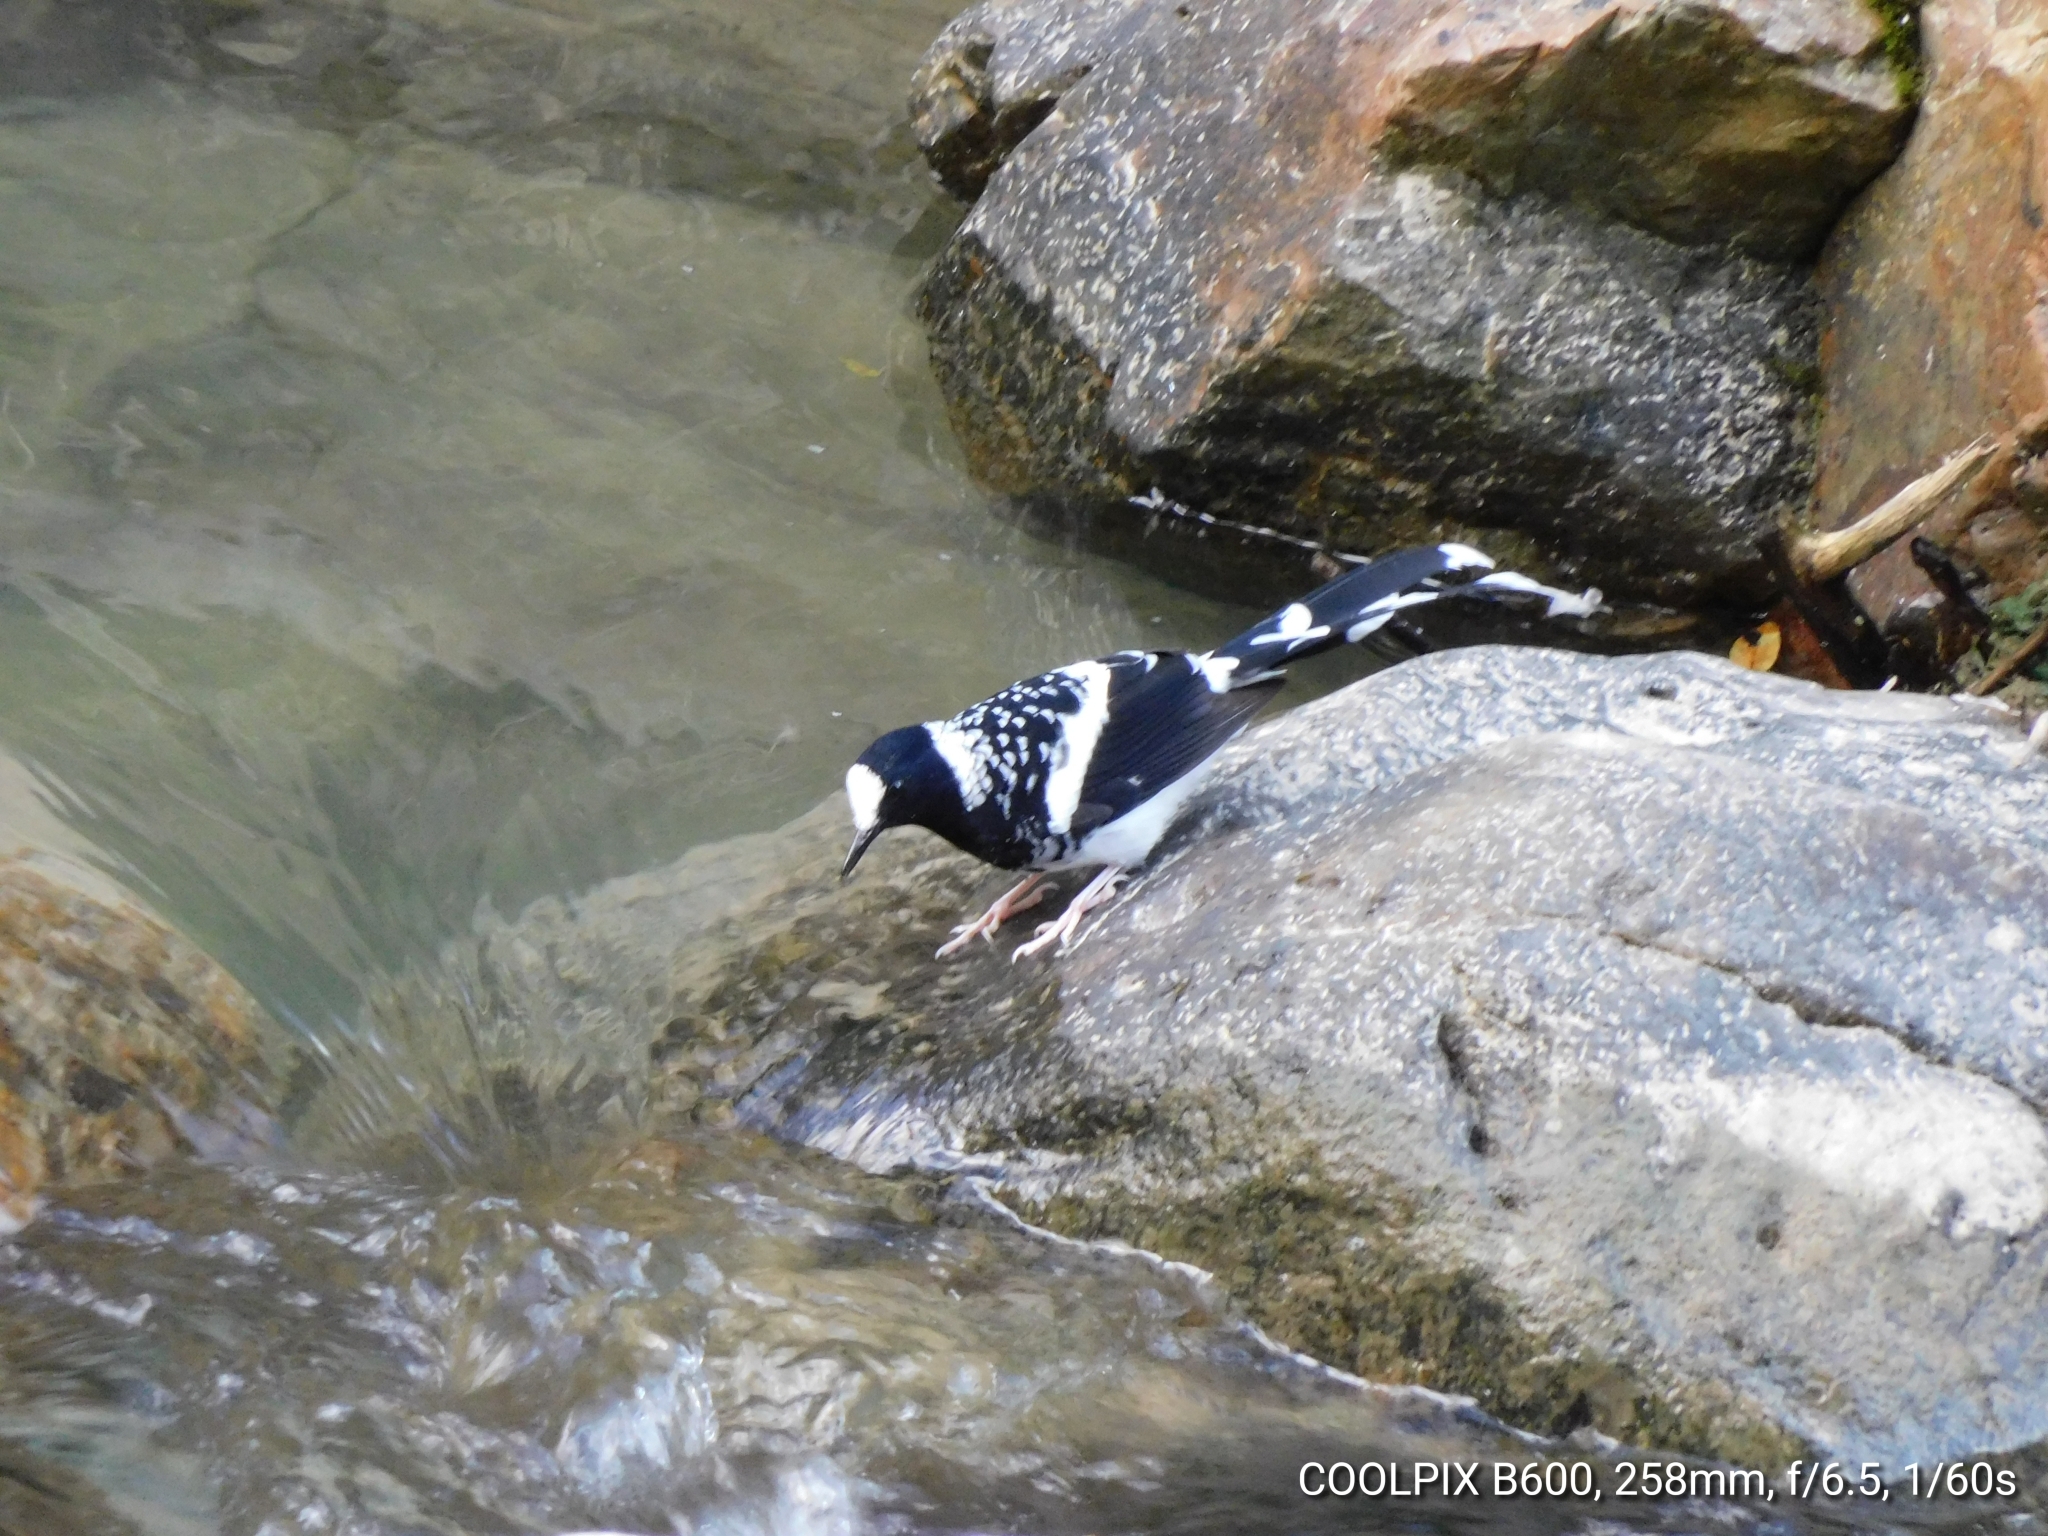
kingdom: Animalia
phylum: Chordata
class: Aves
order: Passeriformes
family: Muscicapidae
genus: Enicurus
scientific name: Enicurus maculatus
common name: Spotted forktail
